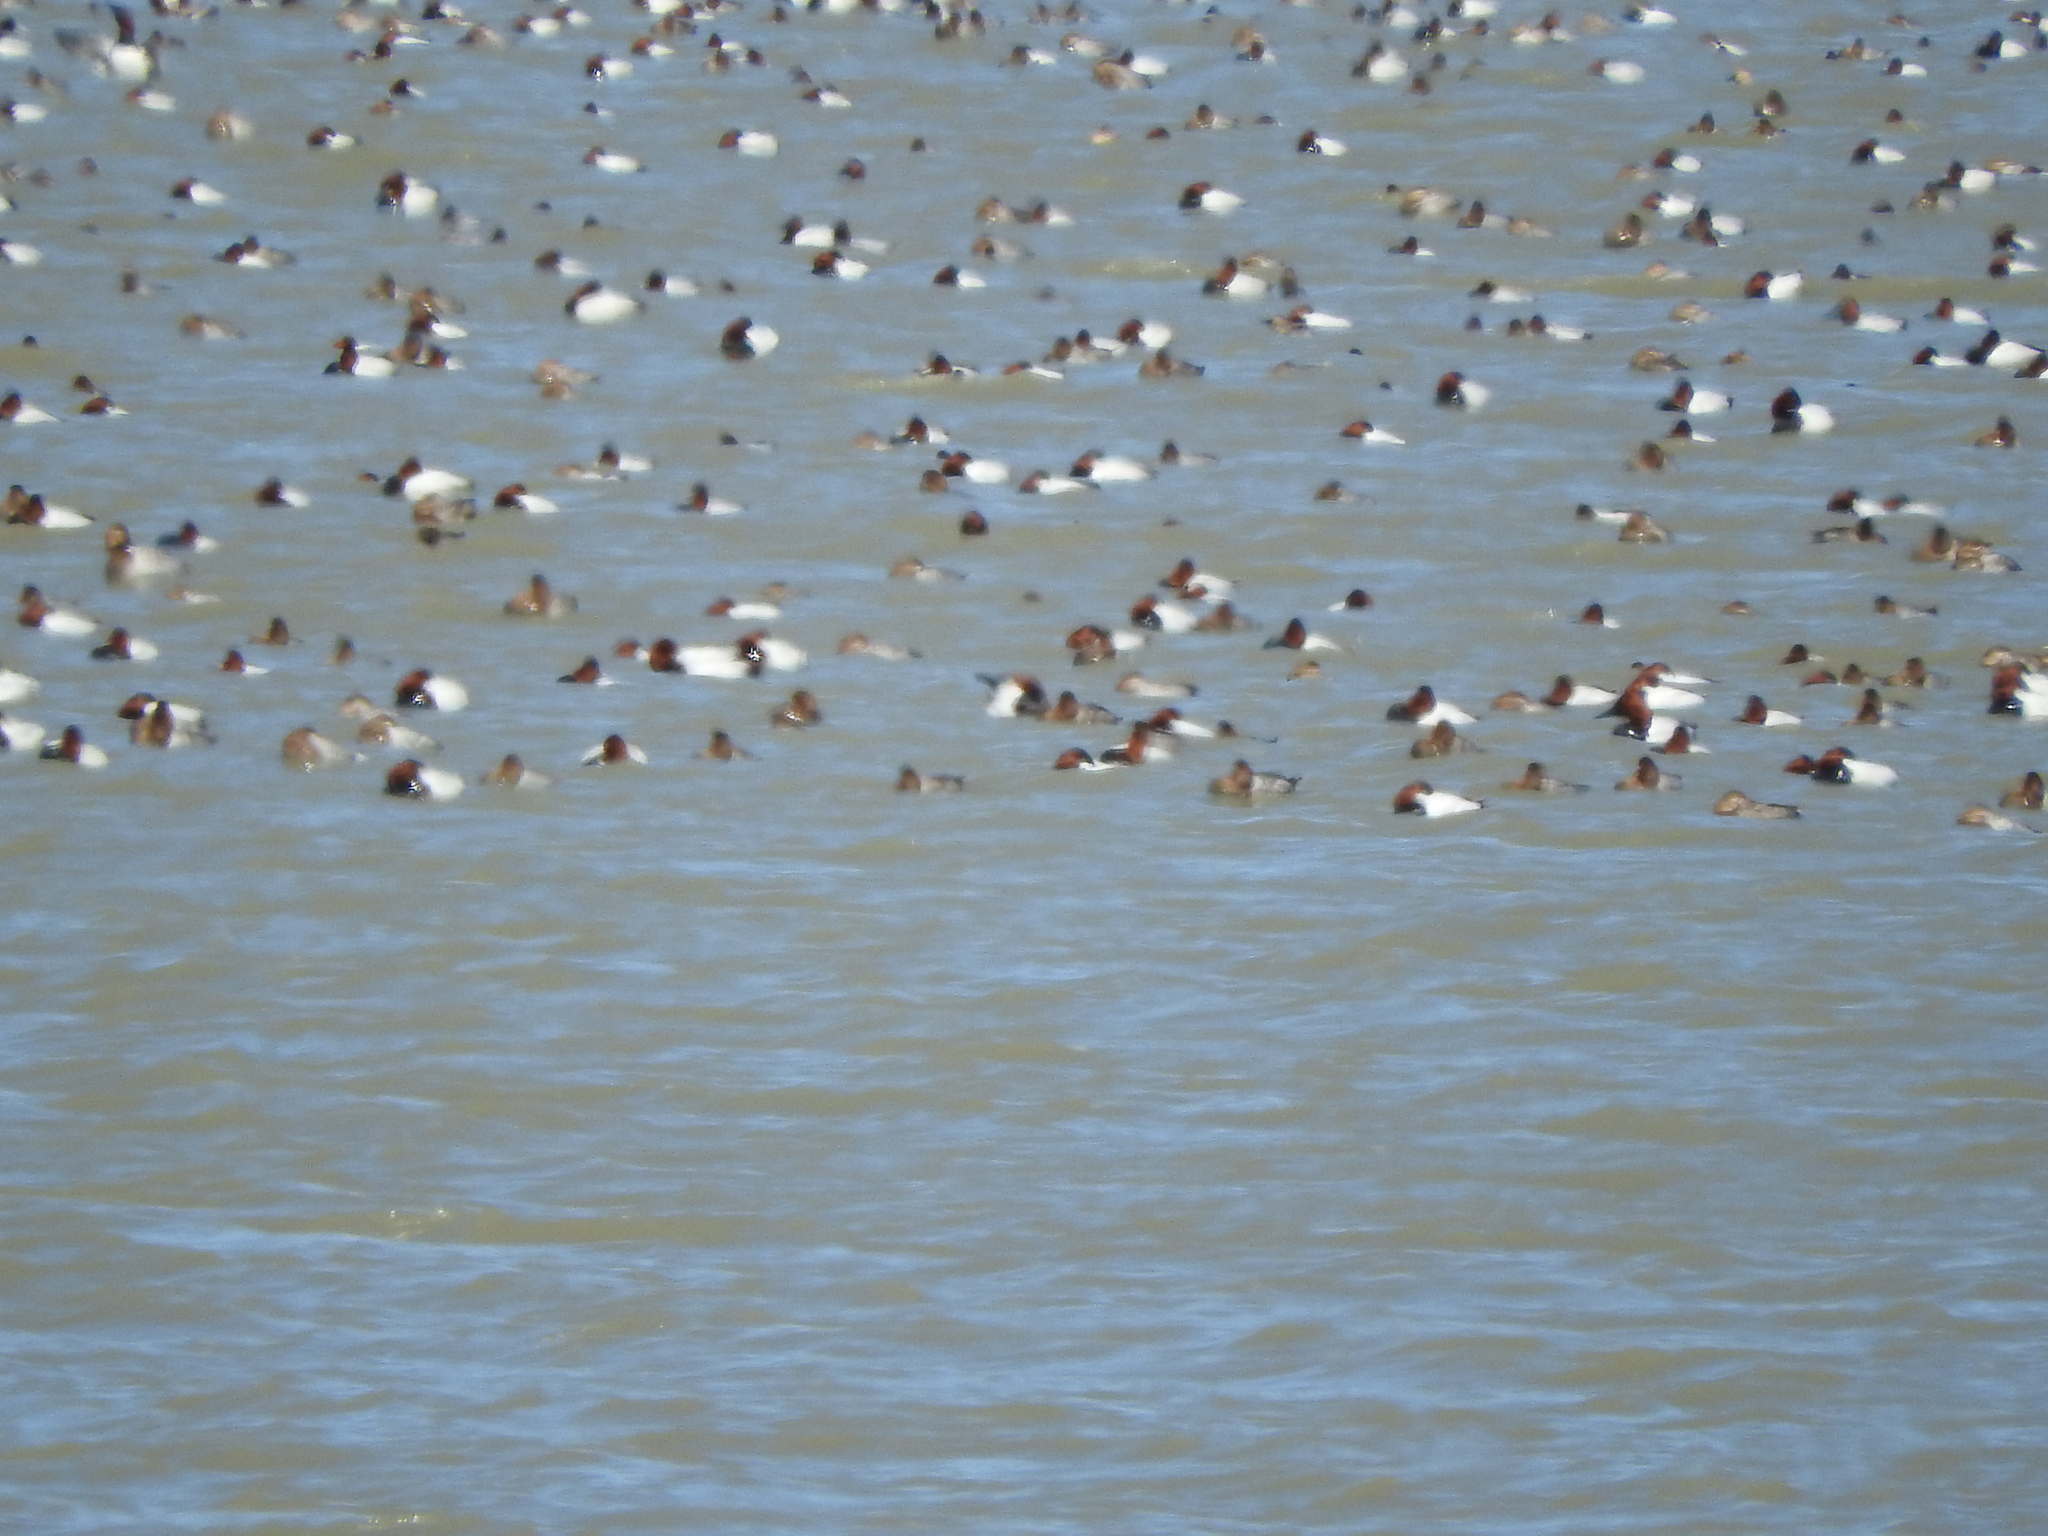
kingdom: Animalia
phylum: Chordata
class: Aves
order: Anseriformes
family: Anatidae
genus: Aythya
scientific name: Aythya valisineria
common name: Canvasback
